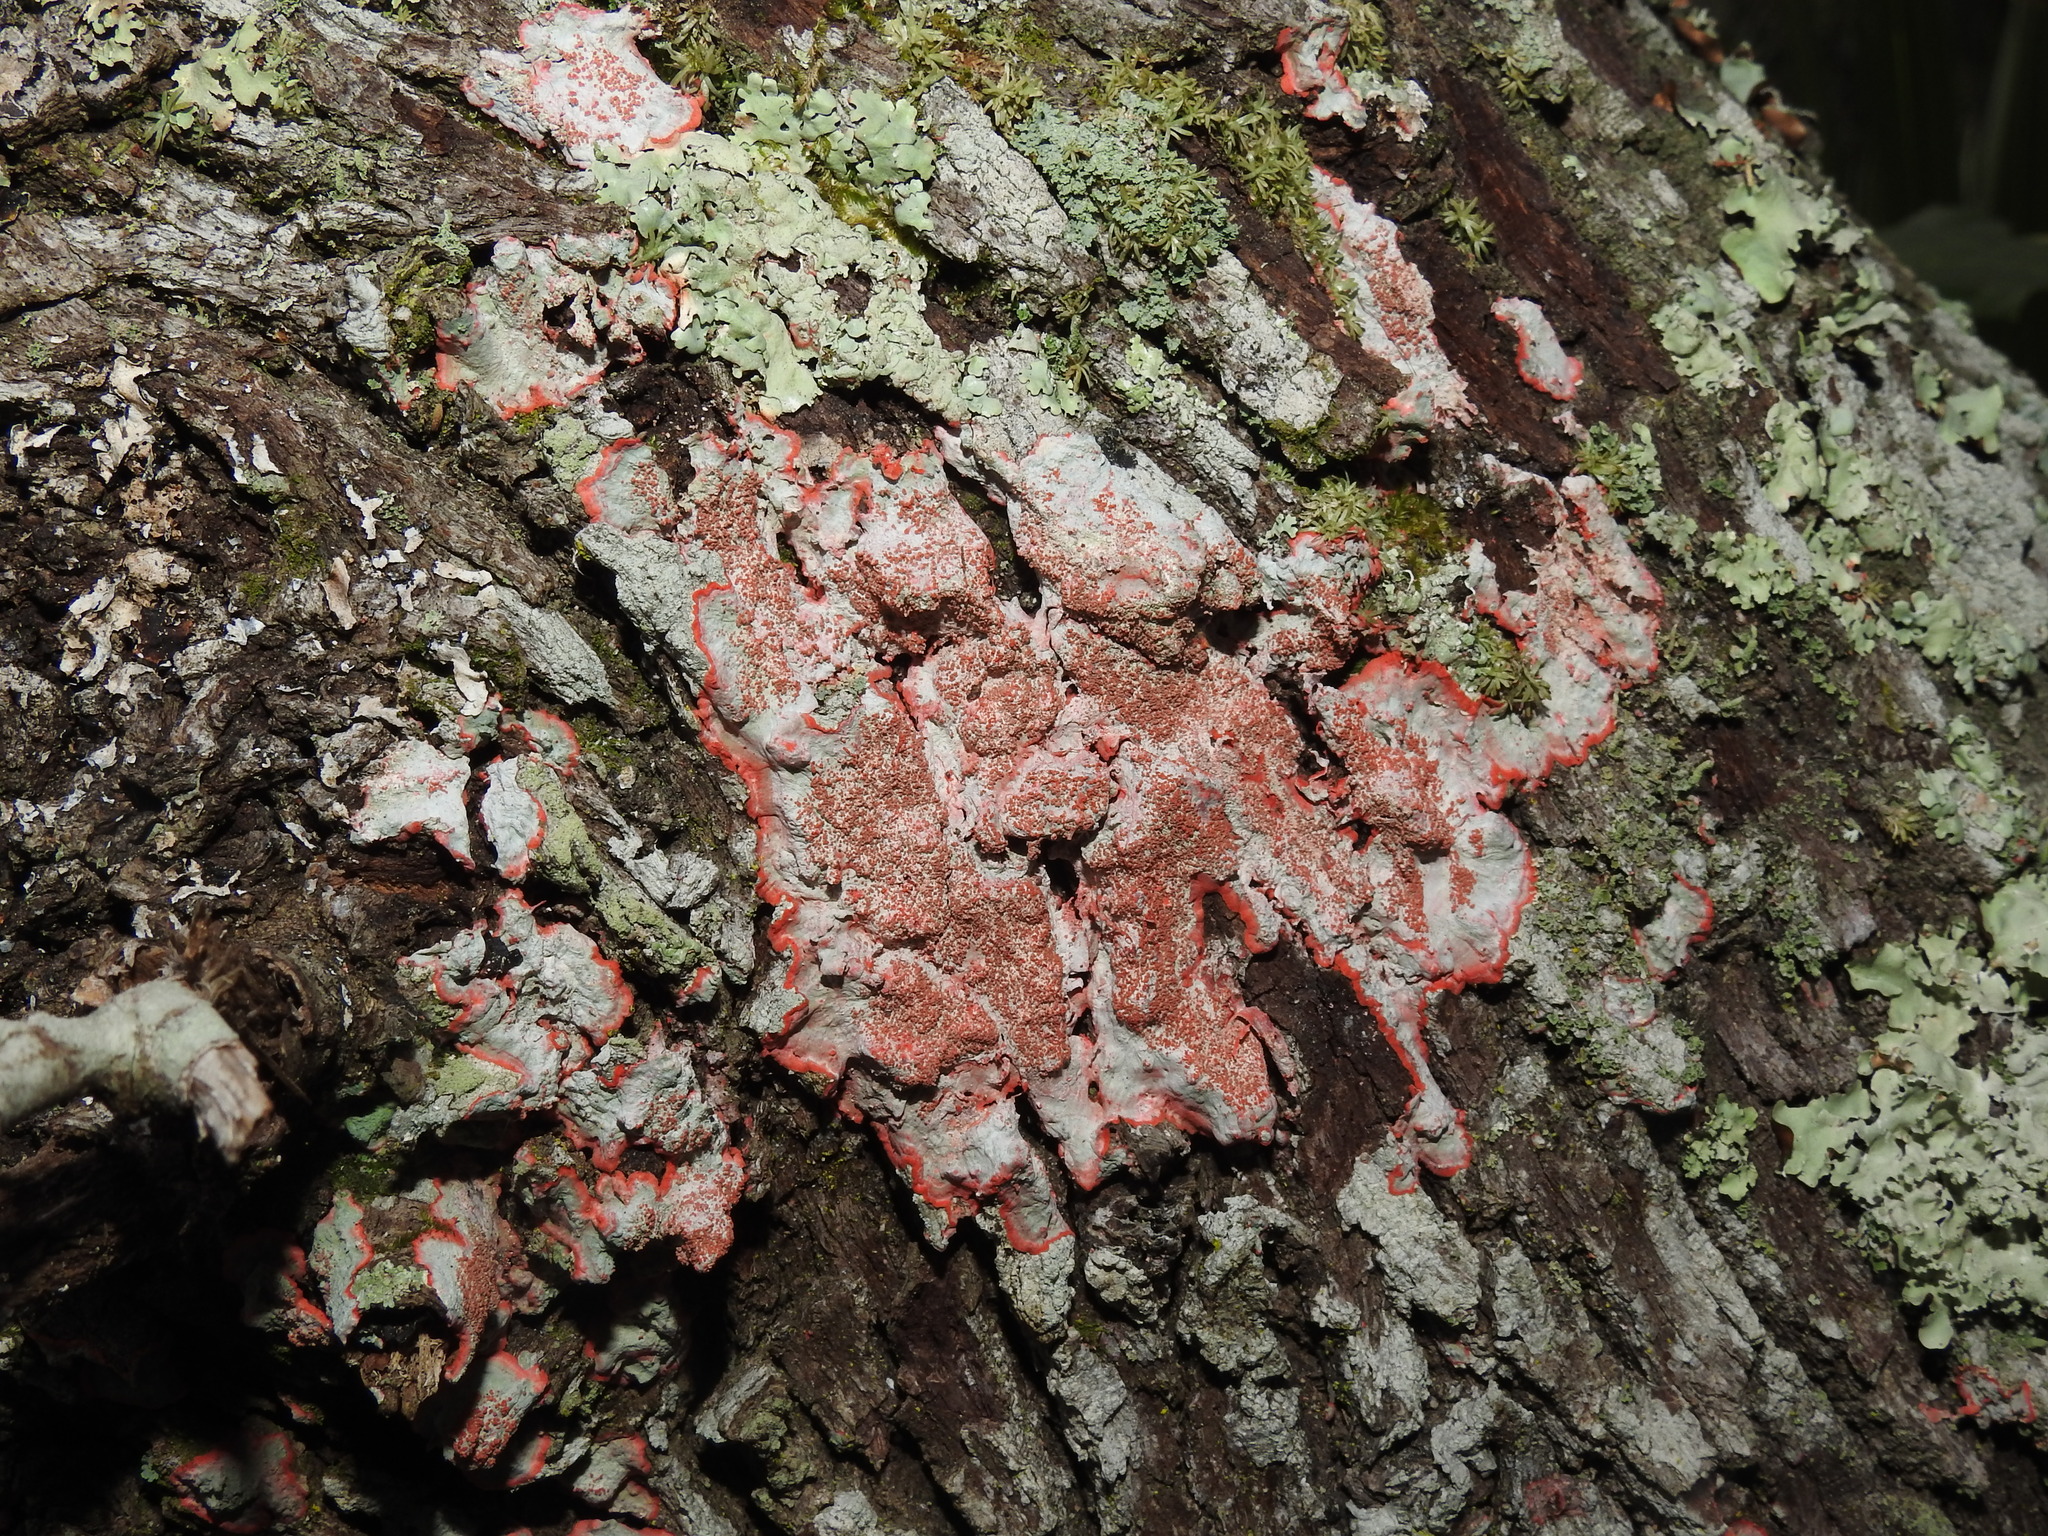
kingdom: Fungi
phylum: Ascomycota
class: Arthoniomycetes
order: Arthoniales
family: Arthoniaceae
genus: Herpothallon
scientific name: Herpothallon rubrocinctum
